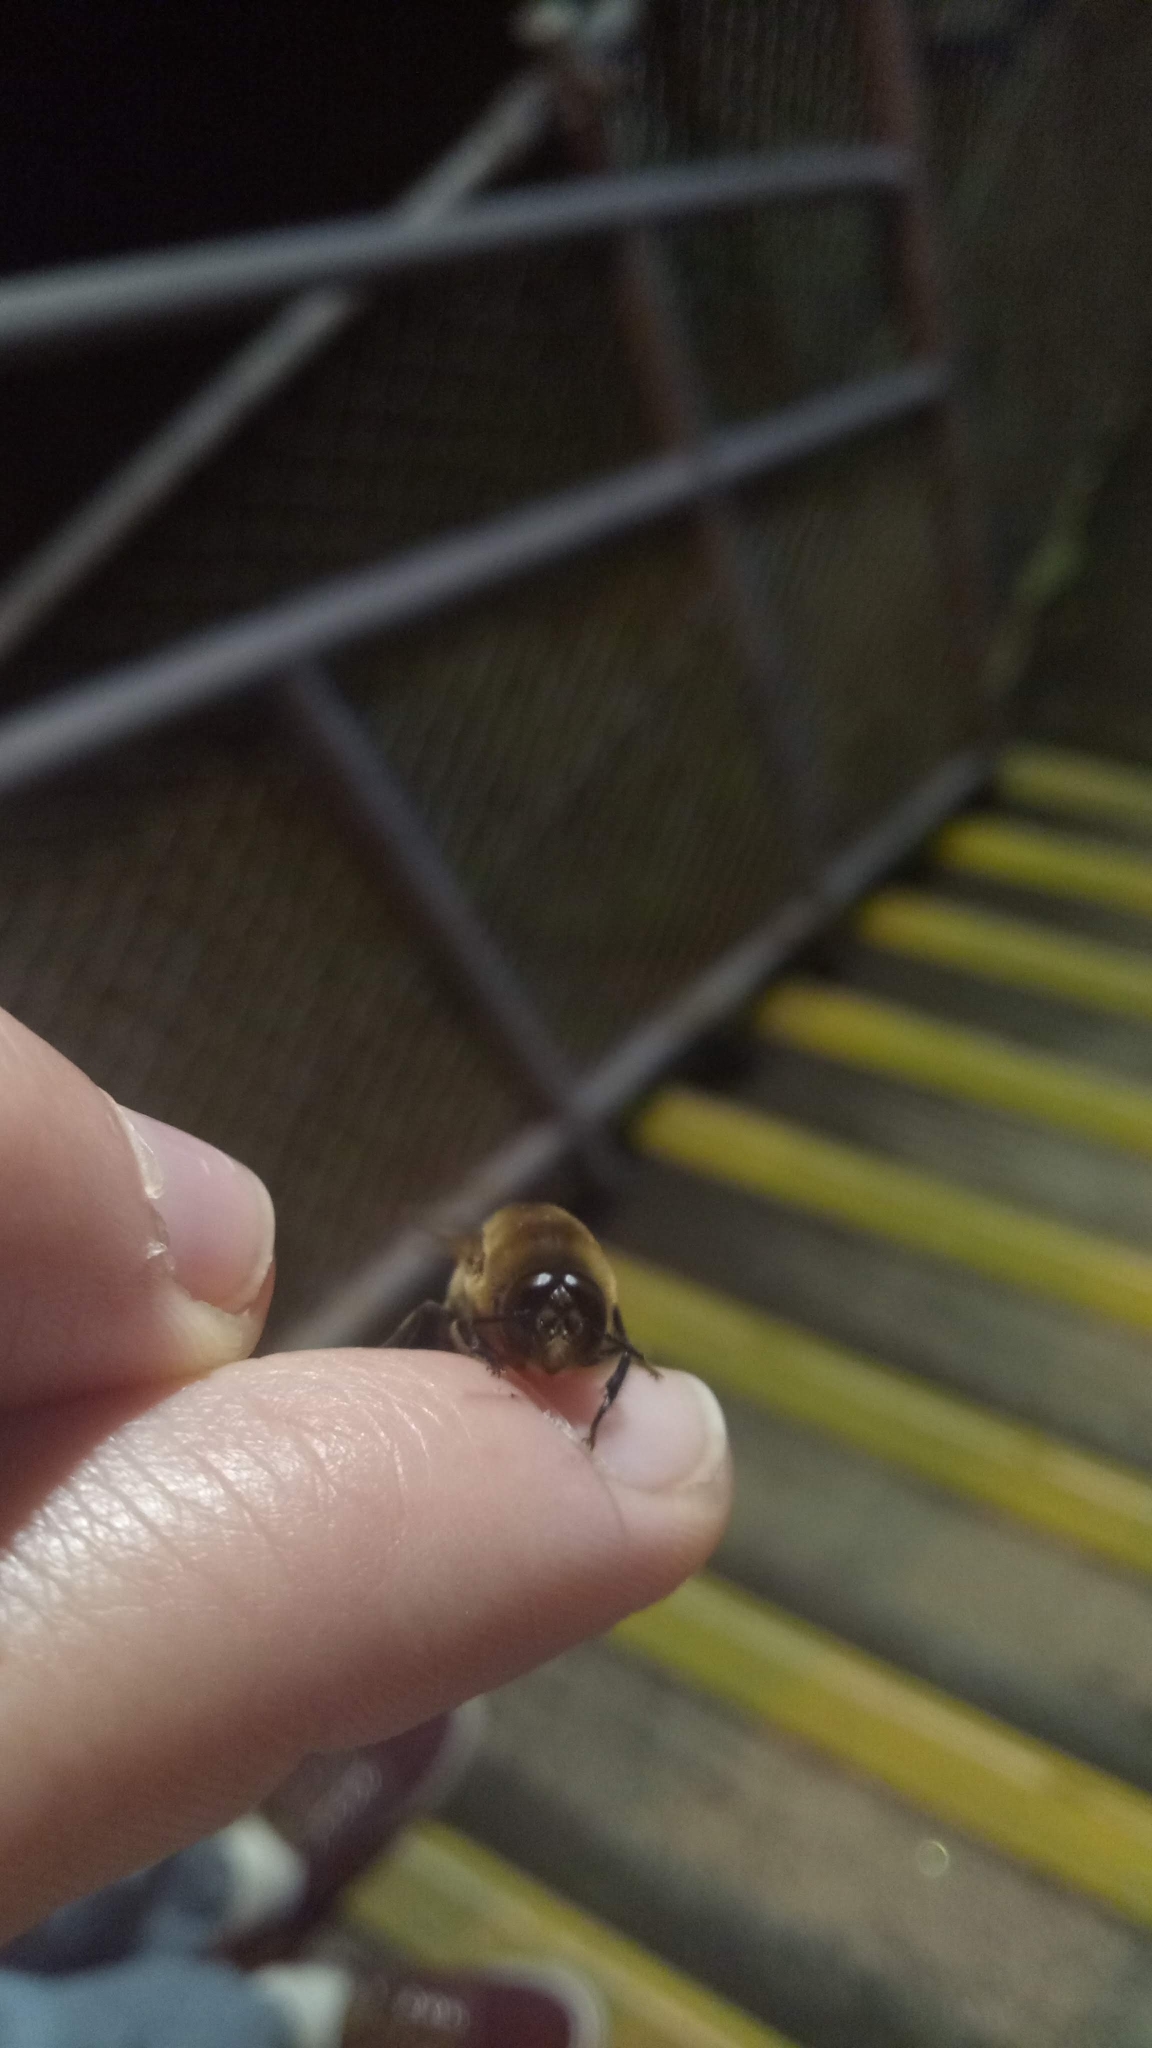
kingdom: Animalia
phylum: Arthropoda
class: Insecta
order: Hymenoptera
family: Apidae
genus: Apis
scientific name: Apis mellifera
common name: Honey bee
